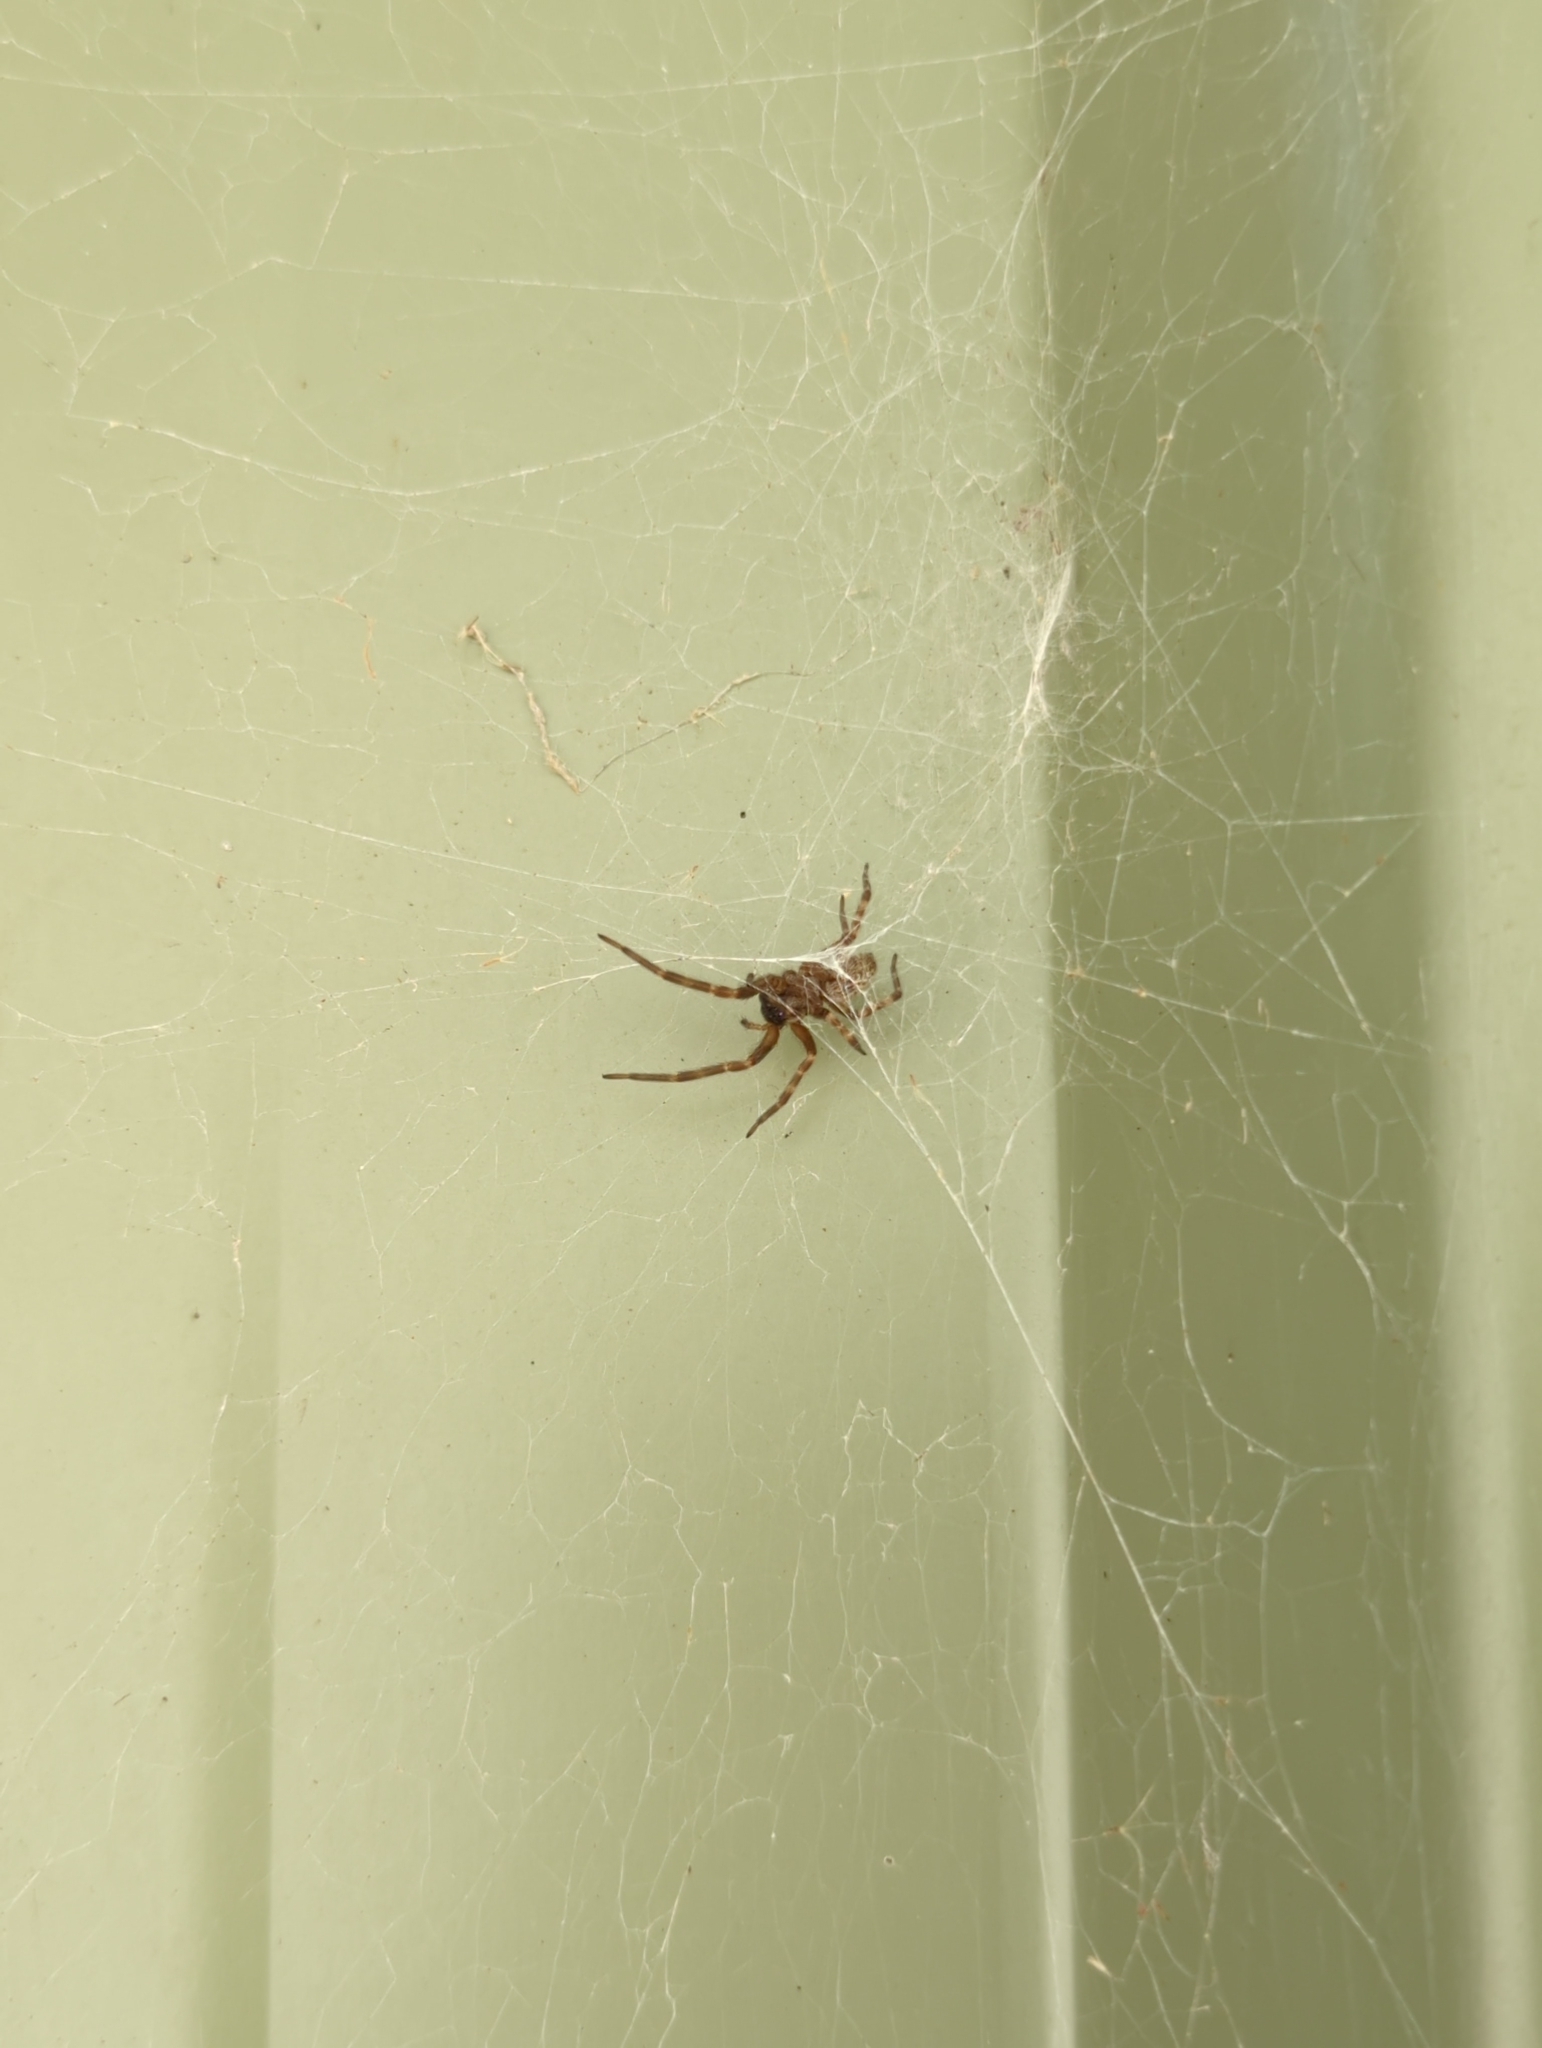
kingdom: Animalia
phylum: Arthropoda
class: Arachnida
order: Araneae
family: Desidae
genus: Badumna
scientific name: Badumna longinqua
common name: Gray house spider
